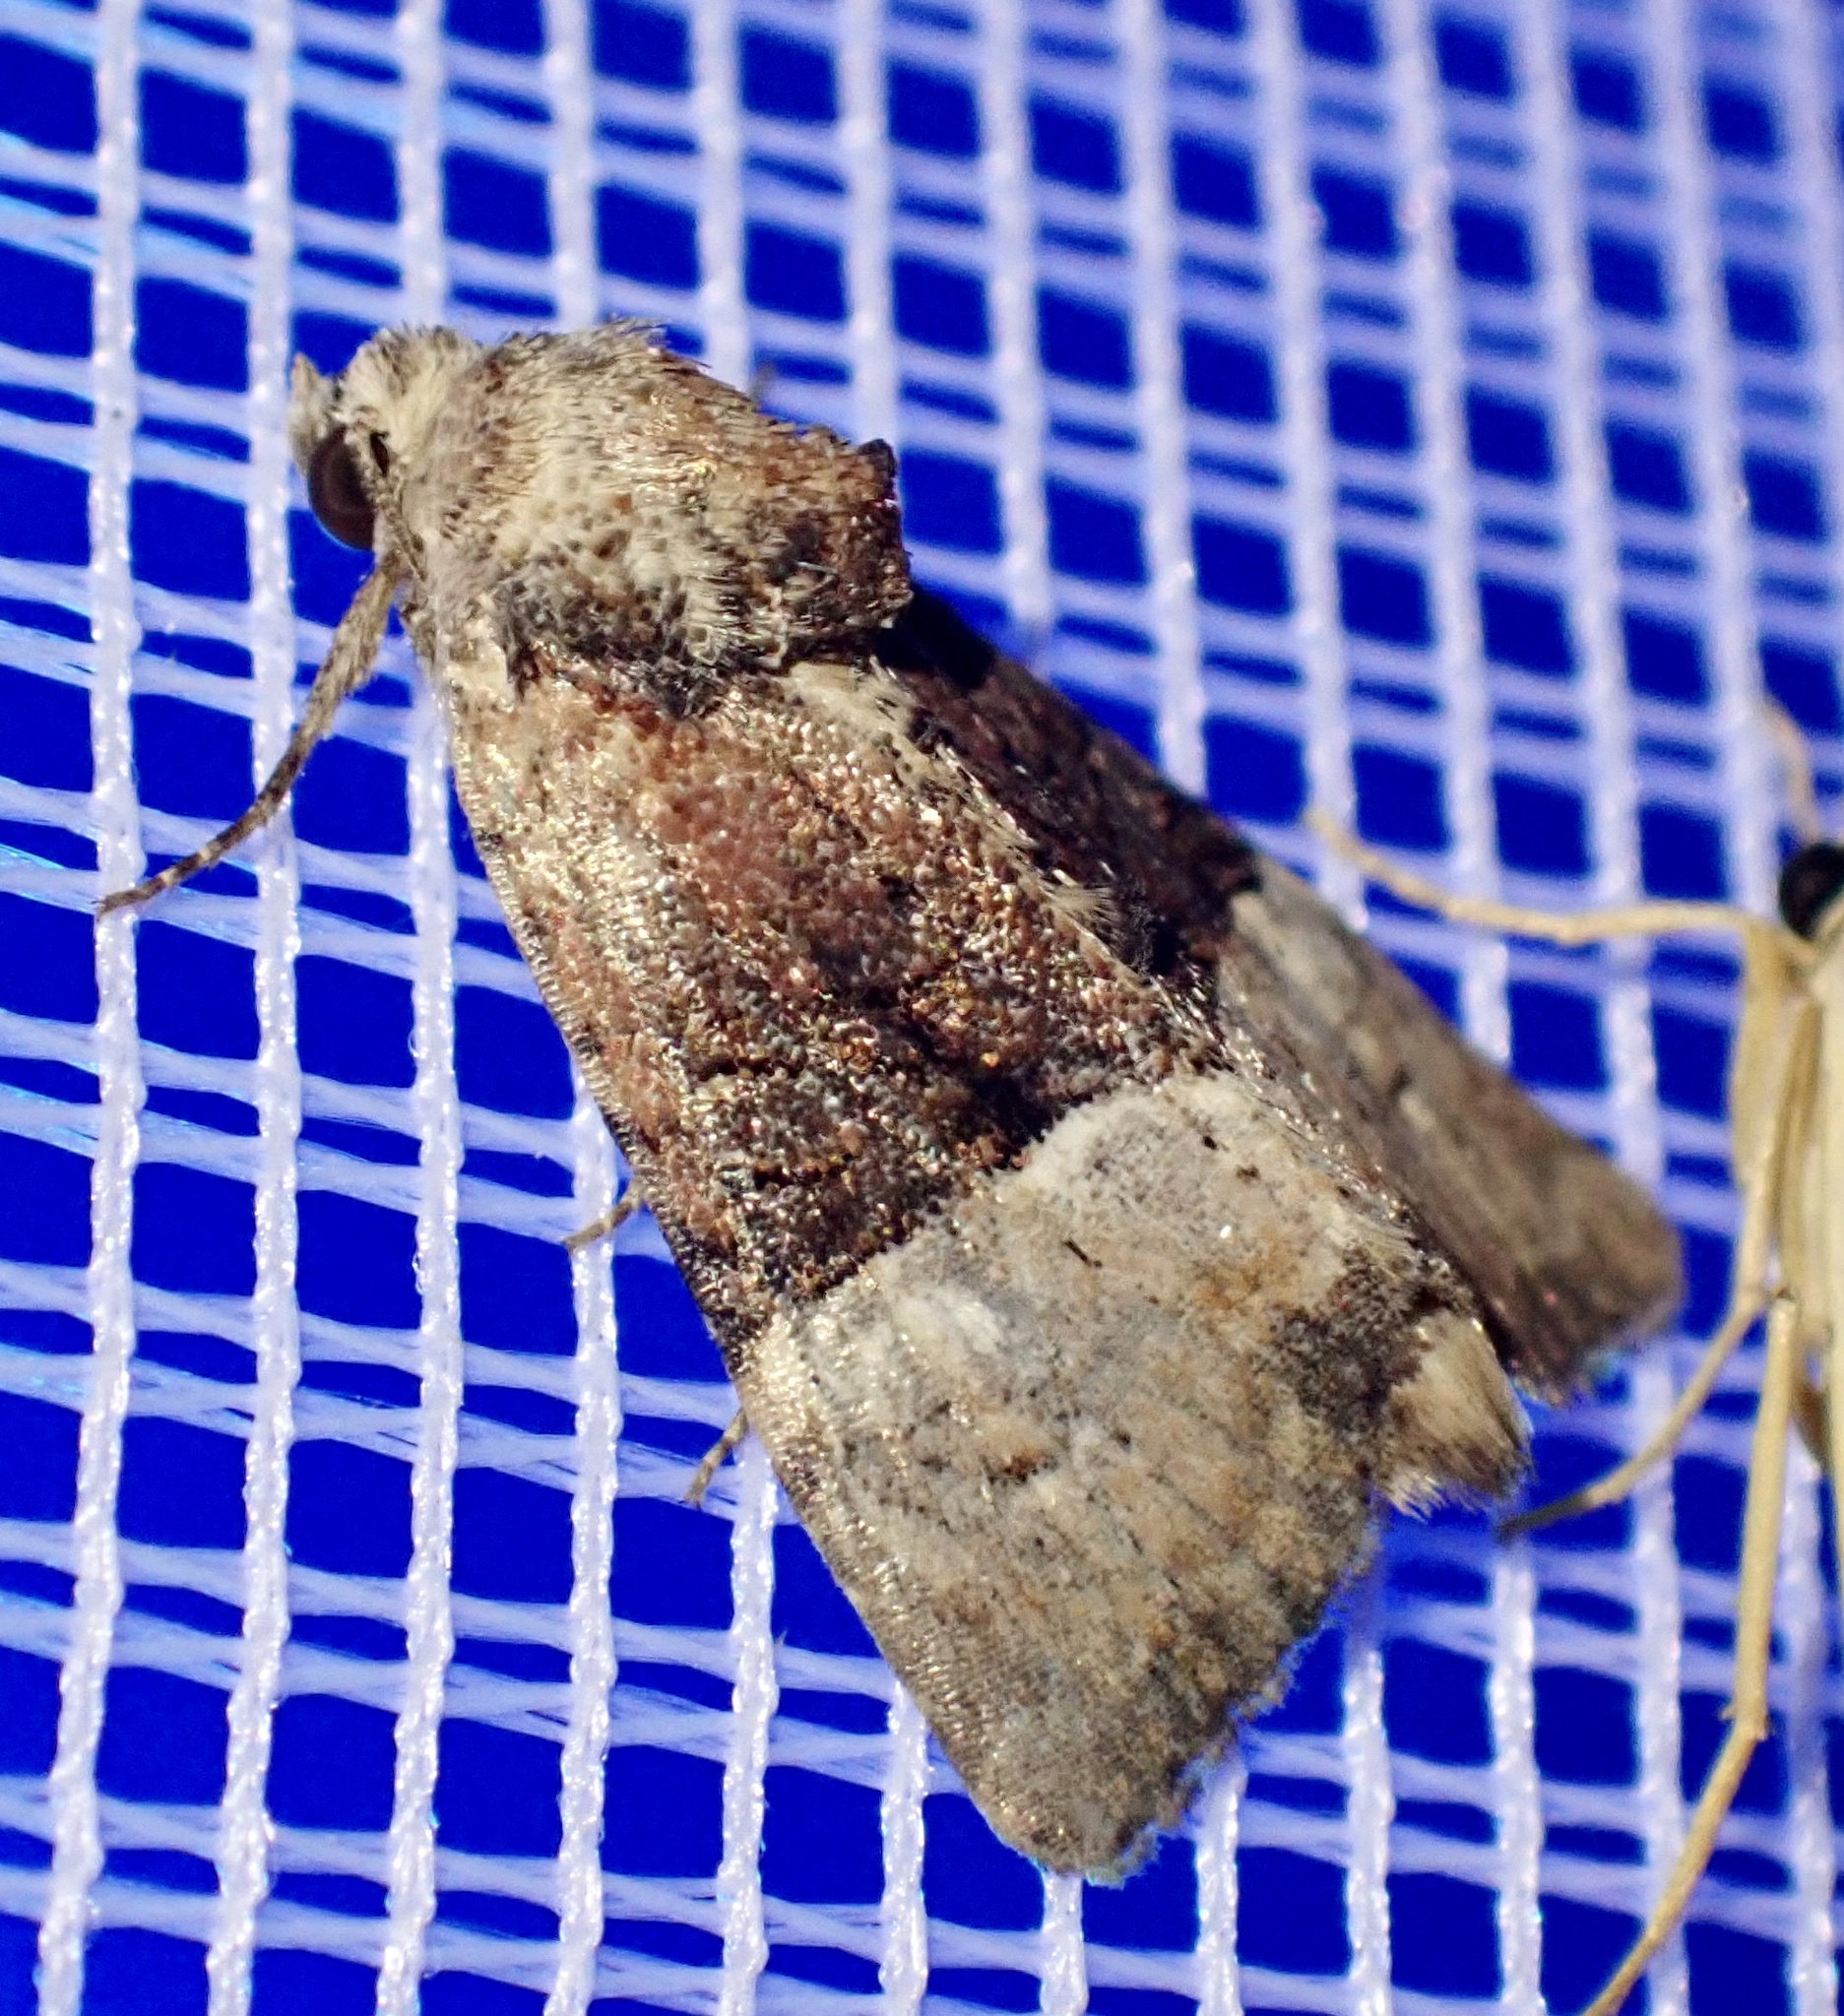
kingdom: Animalia
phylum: Arthropoda
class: Insecta
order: Lepidoptera
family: Noctuidae
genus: Mesoligia
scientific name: Mesoligia furuncula
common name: Cloaked minor
